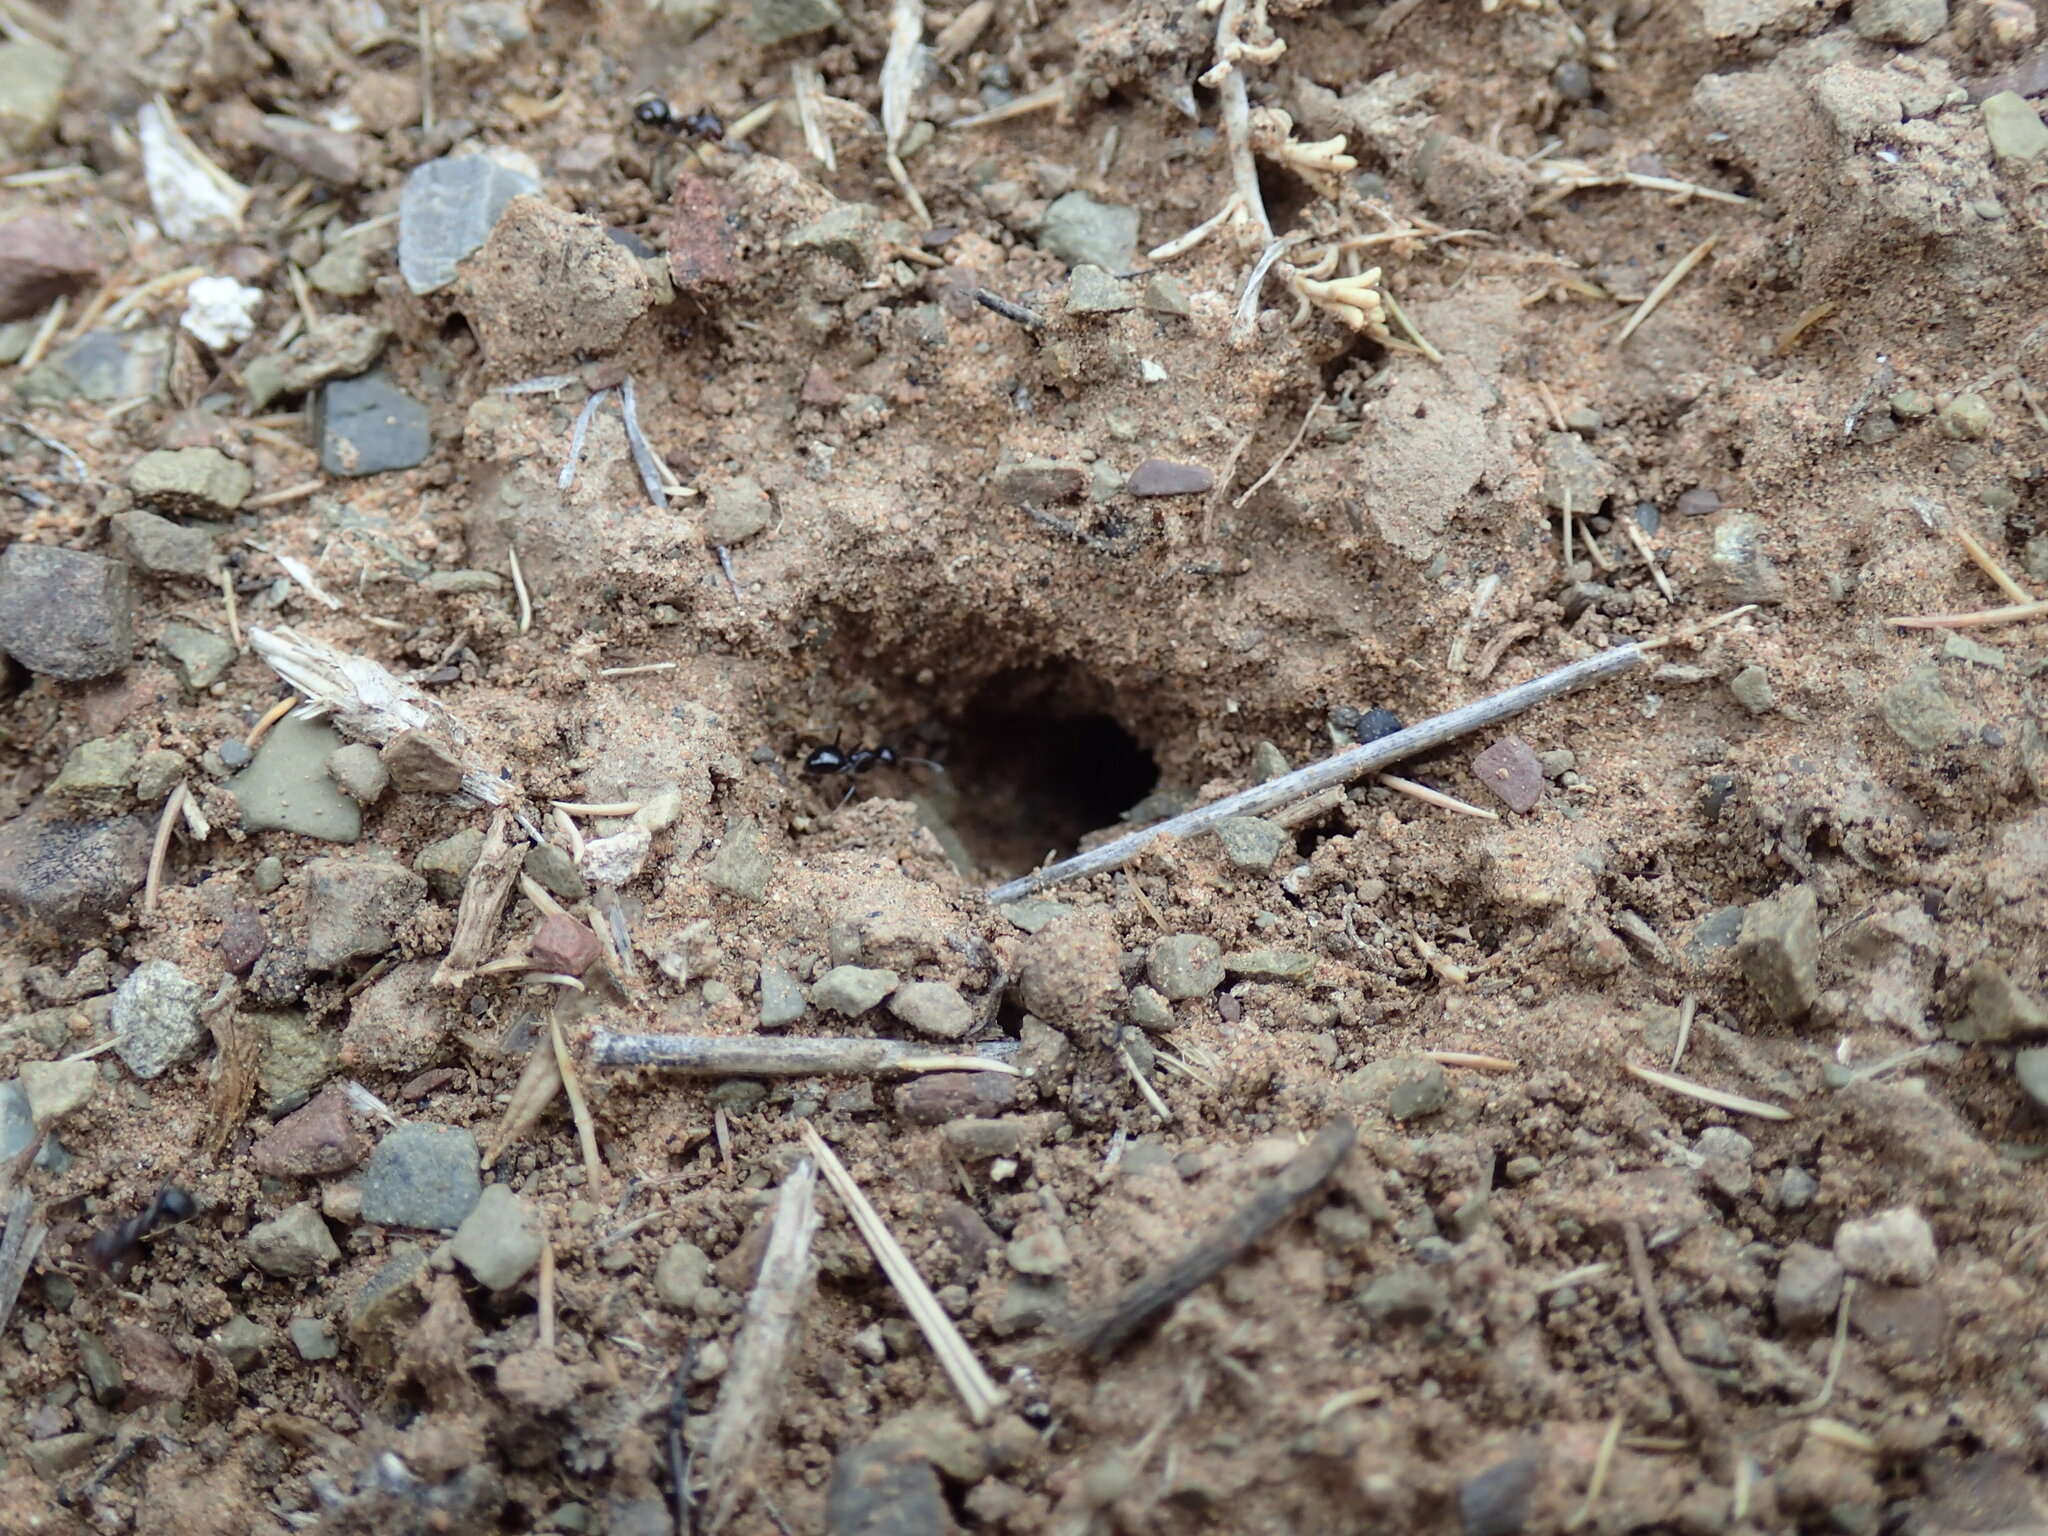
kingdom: Animalia
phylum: Arthropoda
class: Insecta
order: Hymenoptera
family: Formicidae
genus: Anoplolepis
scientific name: Anoplolepis steingroeveri
